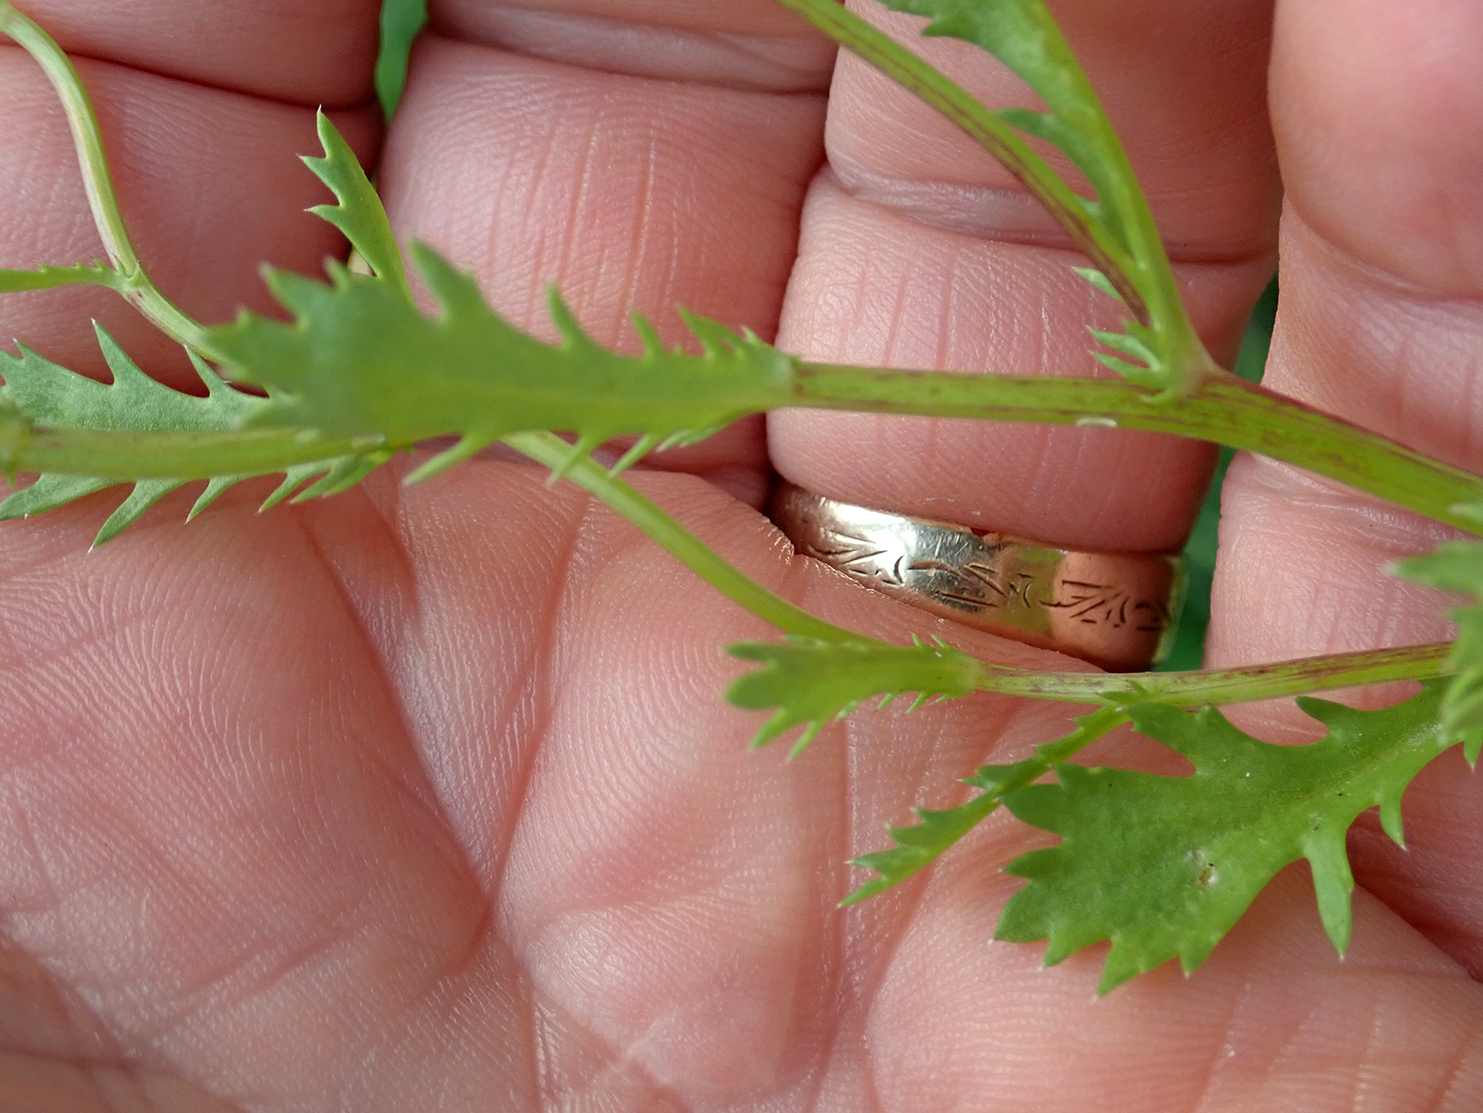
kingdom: Plantae
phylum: Tracheophyta
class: Magnoliopsida
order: Asterales
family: Asteraceae
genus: Mauranthemum
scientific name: Mauranthemum paludosum
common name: Sunflower
